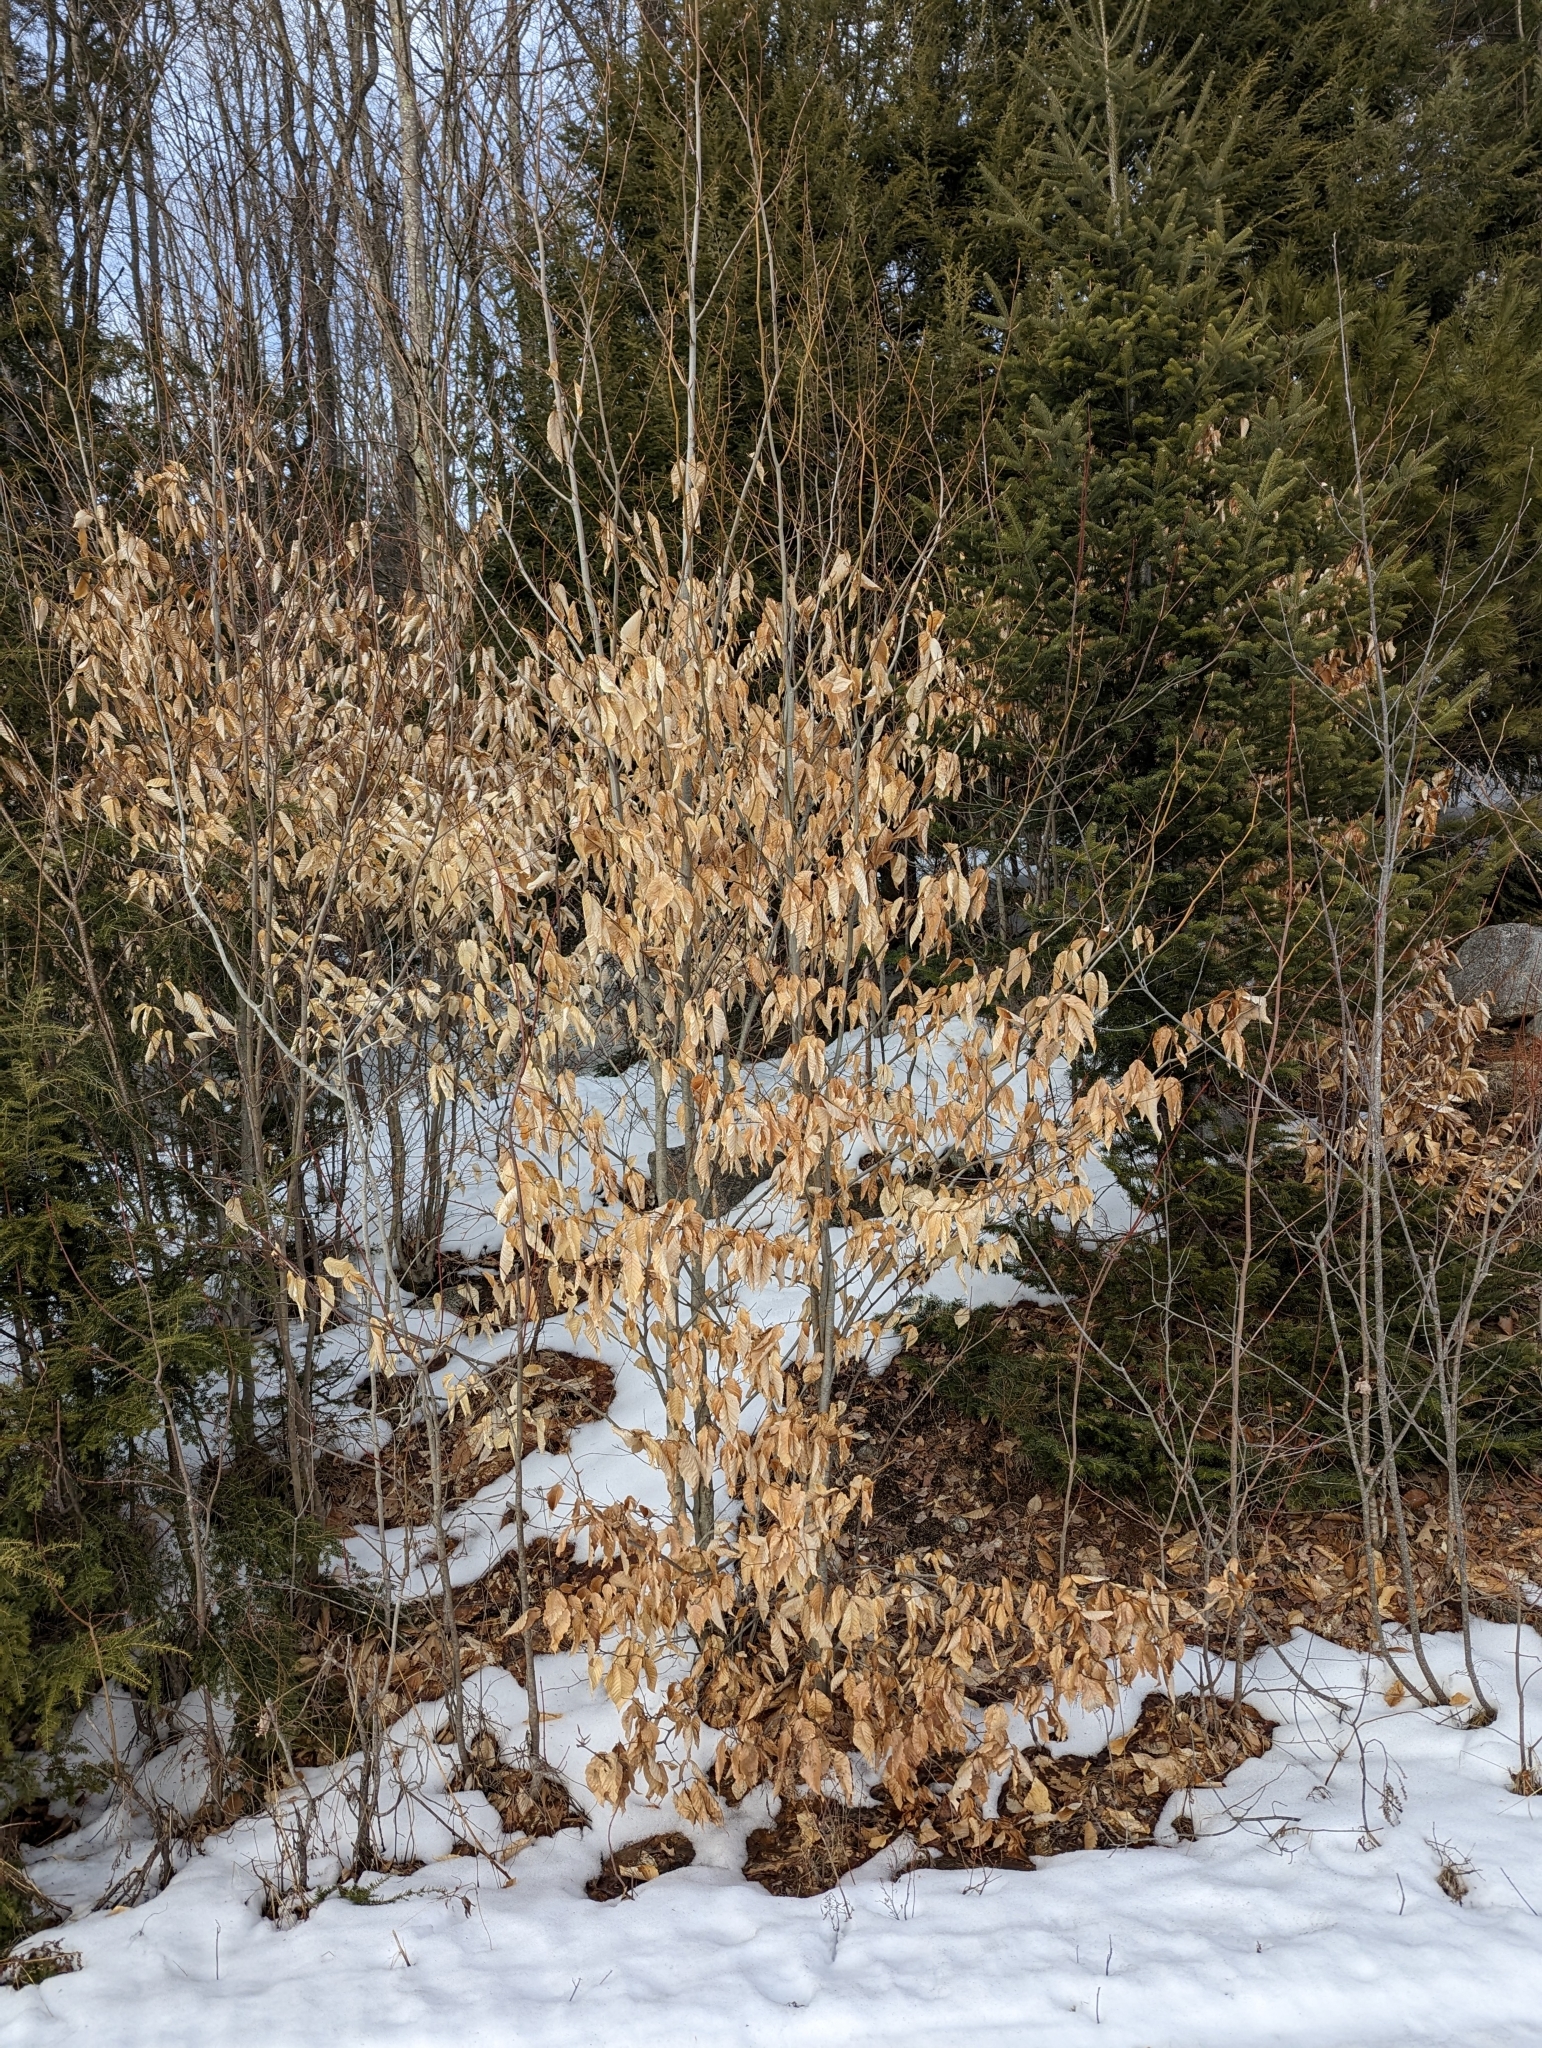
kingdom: Plantae
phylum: Tracheophyta
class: Magnoliopsida
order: Fagales
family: Fagaceae
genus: Fagus
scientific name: Fagus grandifolia
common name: American beech
